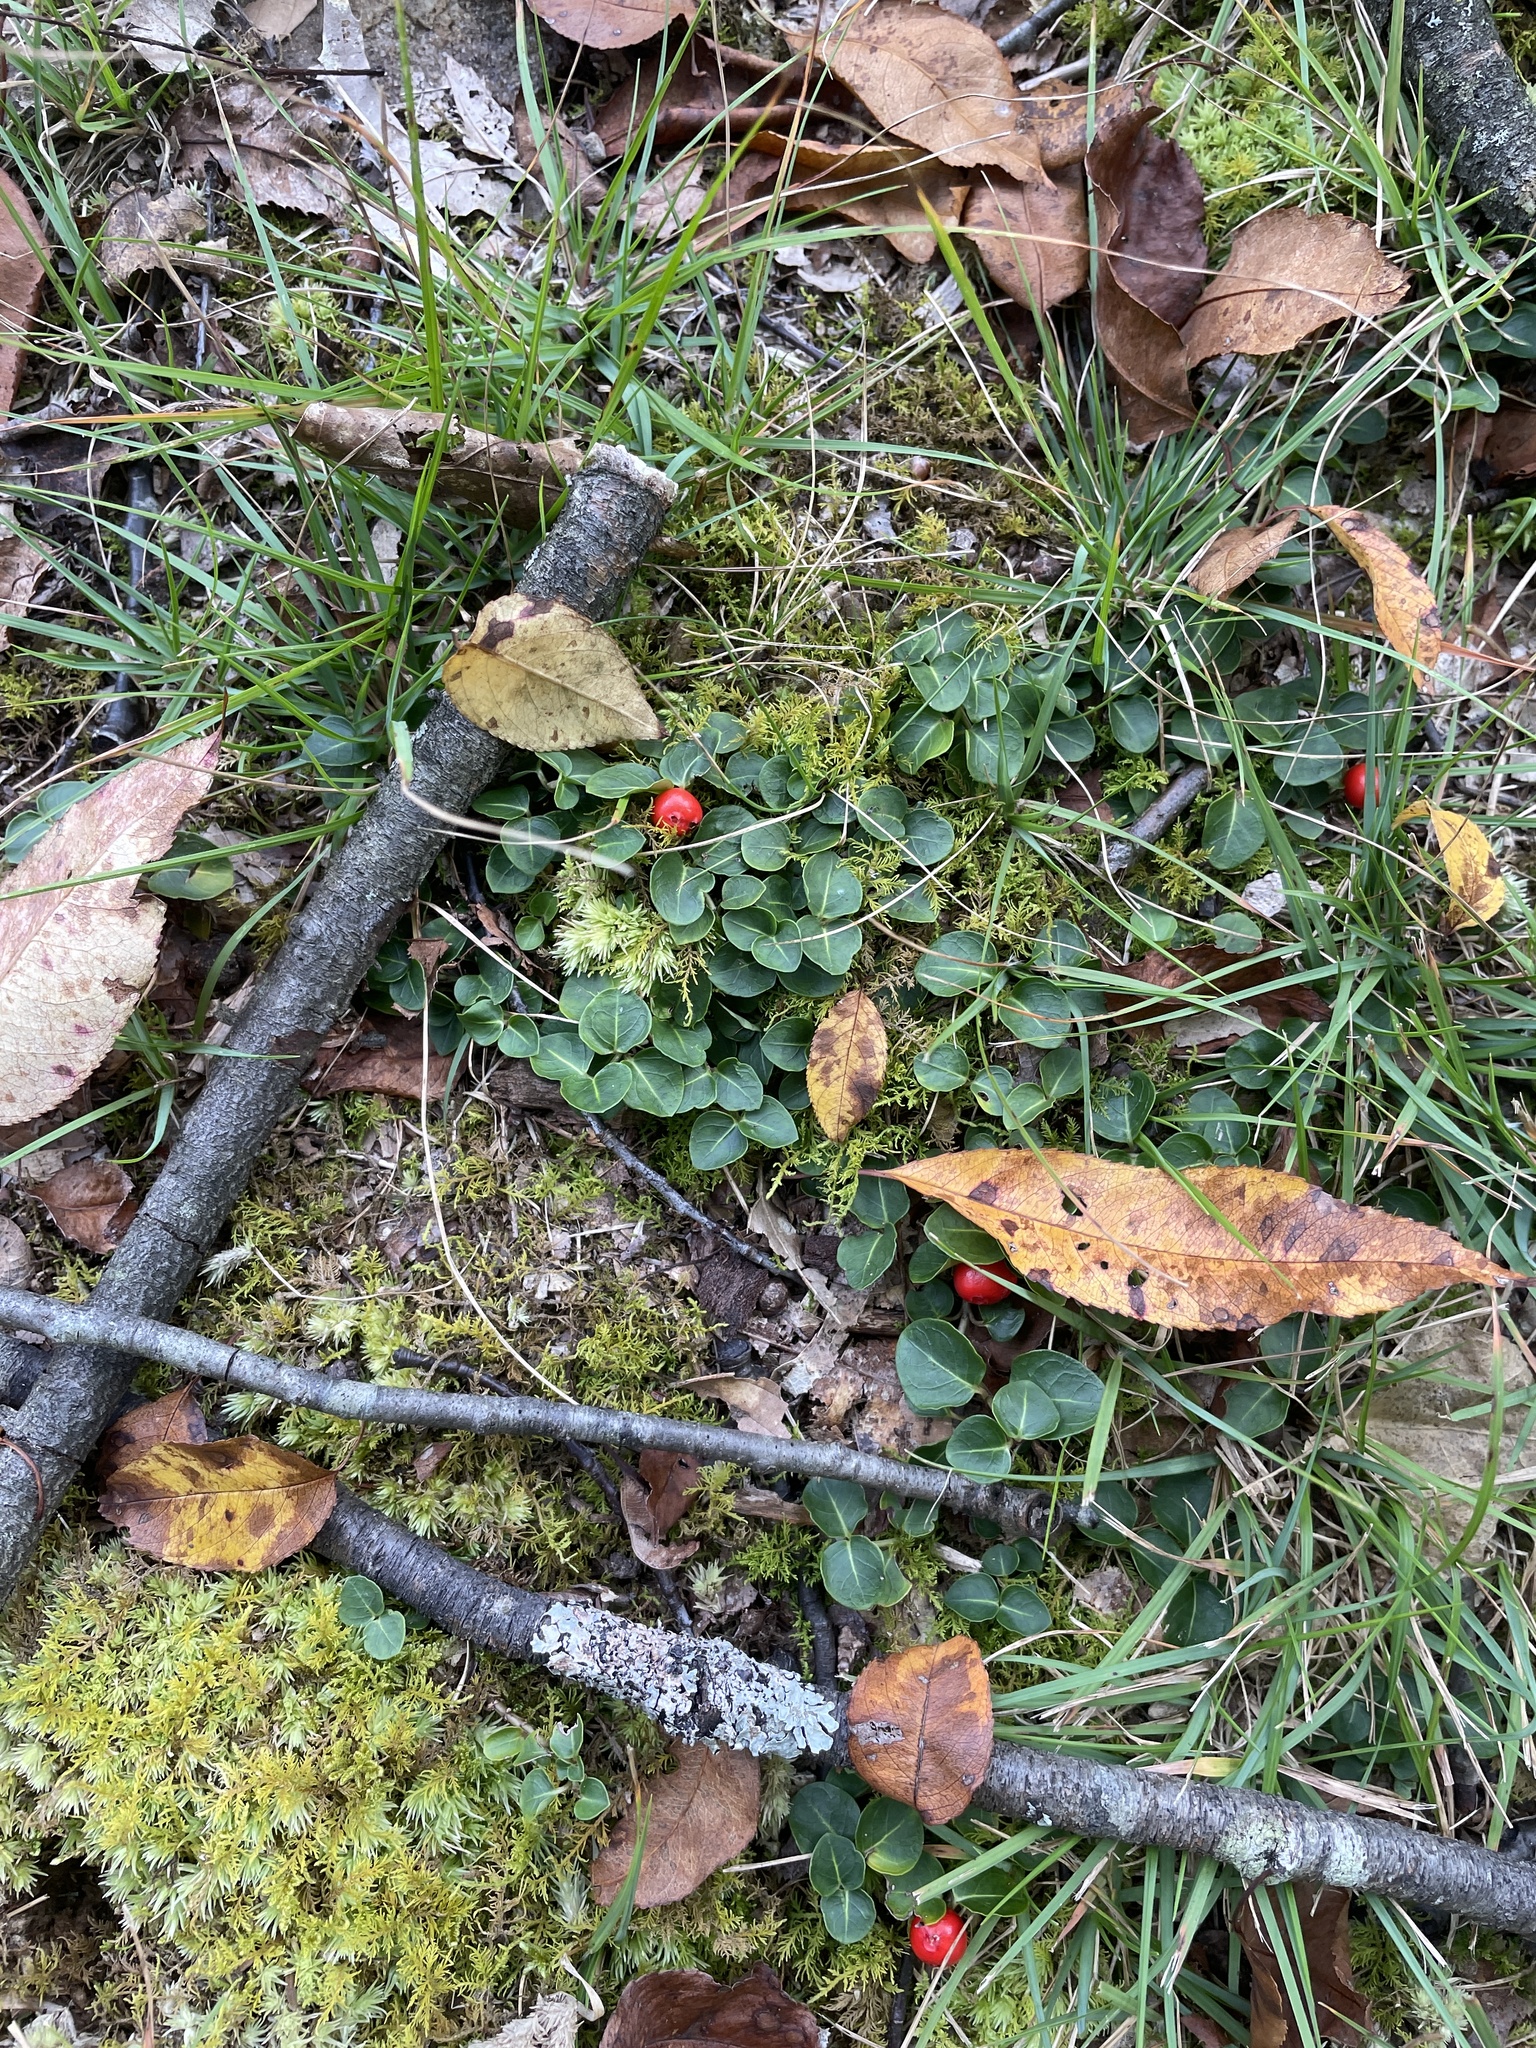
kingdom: Plantae
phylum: Tracheophyta
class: Magnoliopsida
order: Gentianales
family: Rubiaceae
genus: Mitchella
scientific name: Mitchella repens
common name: Partridge-berry
